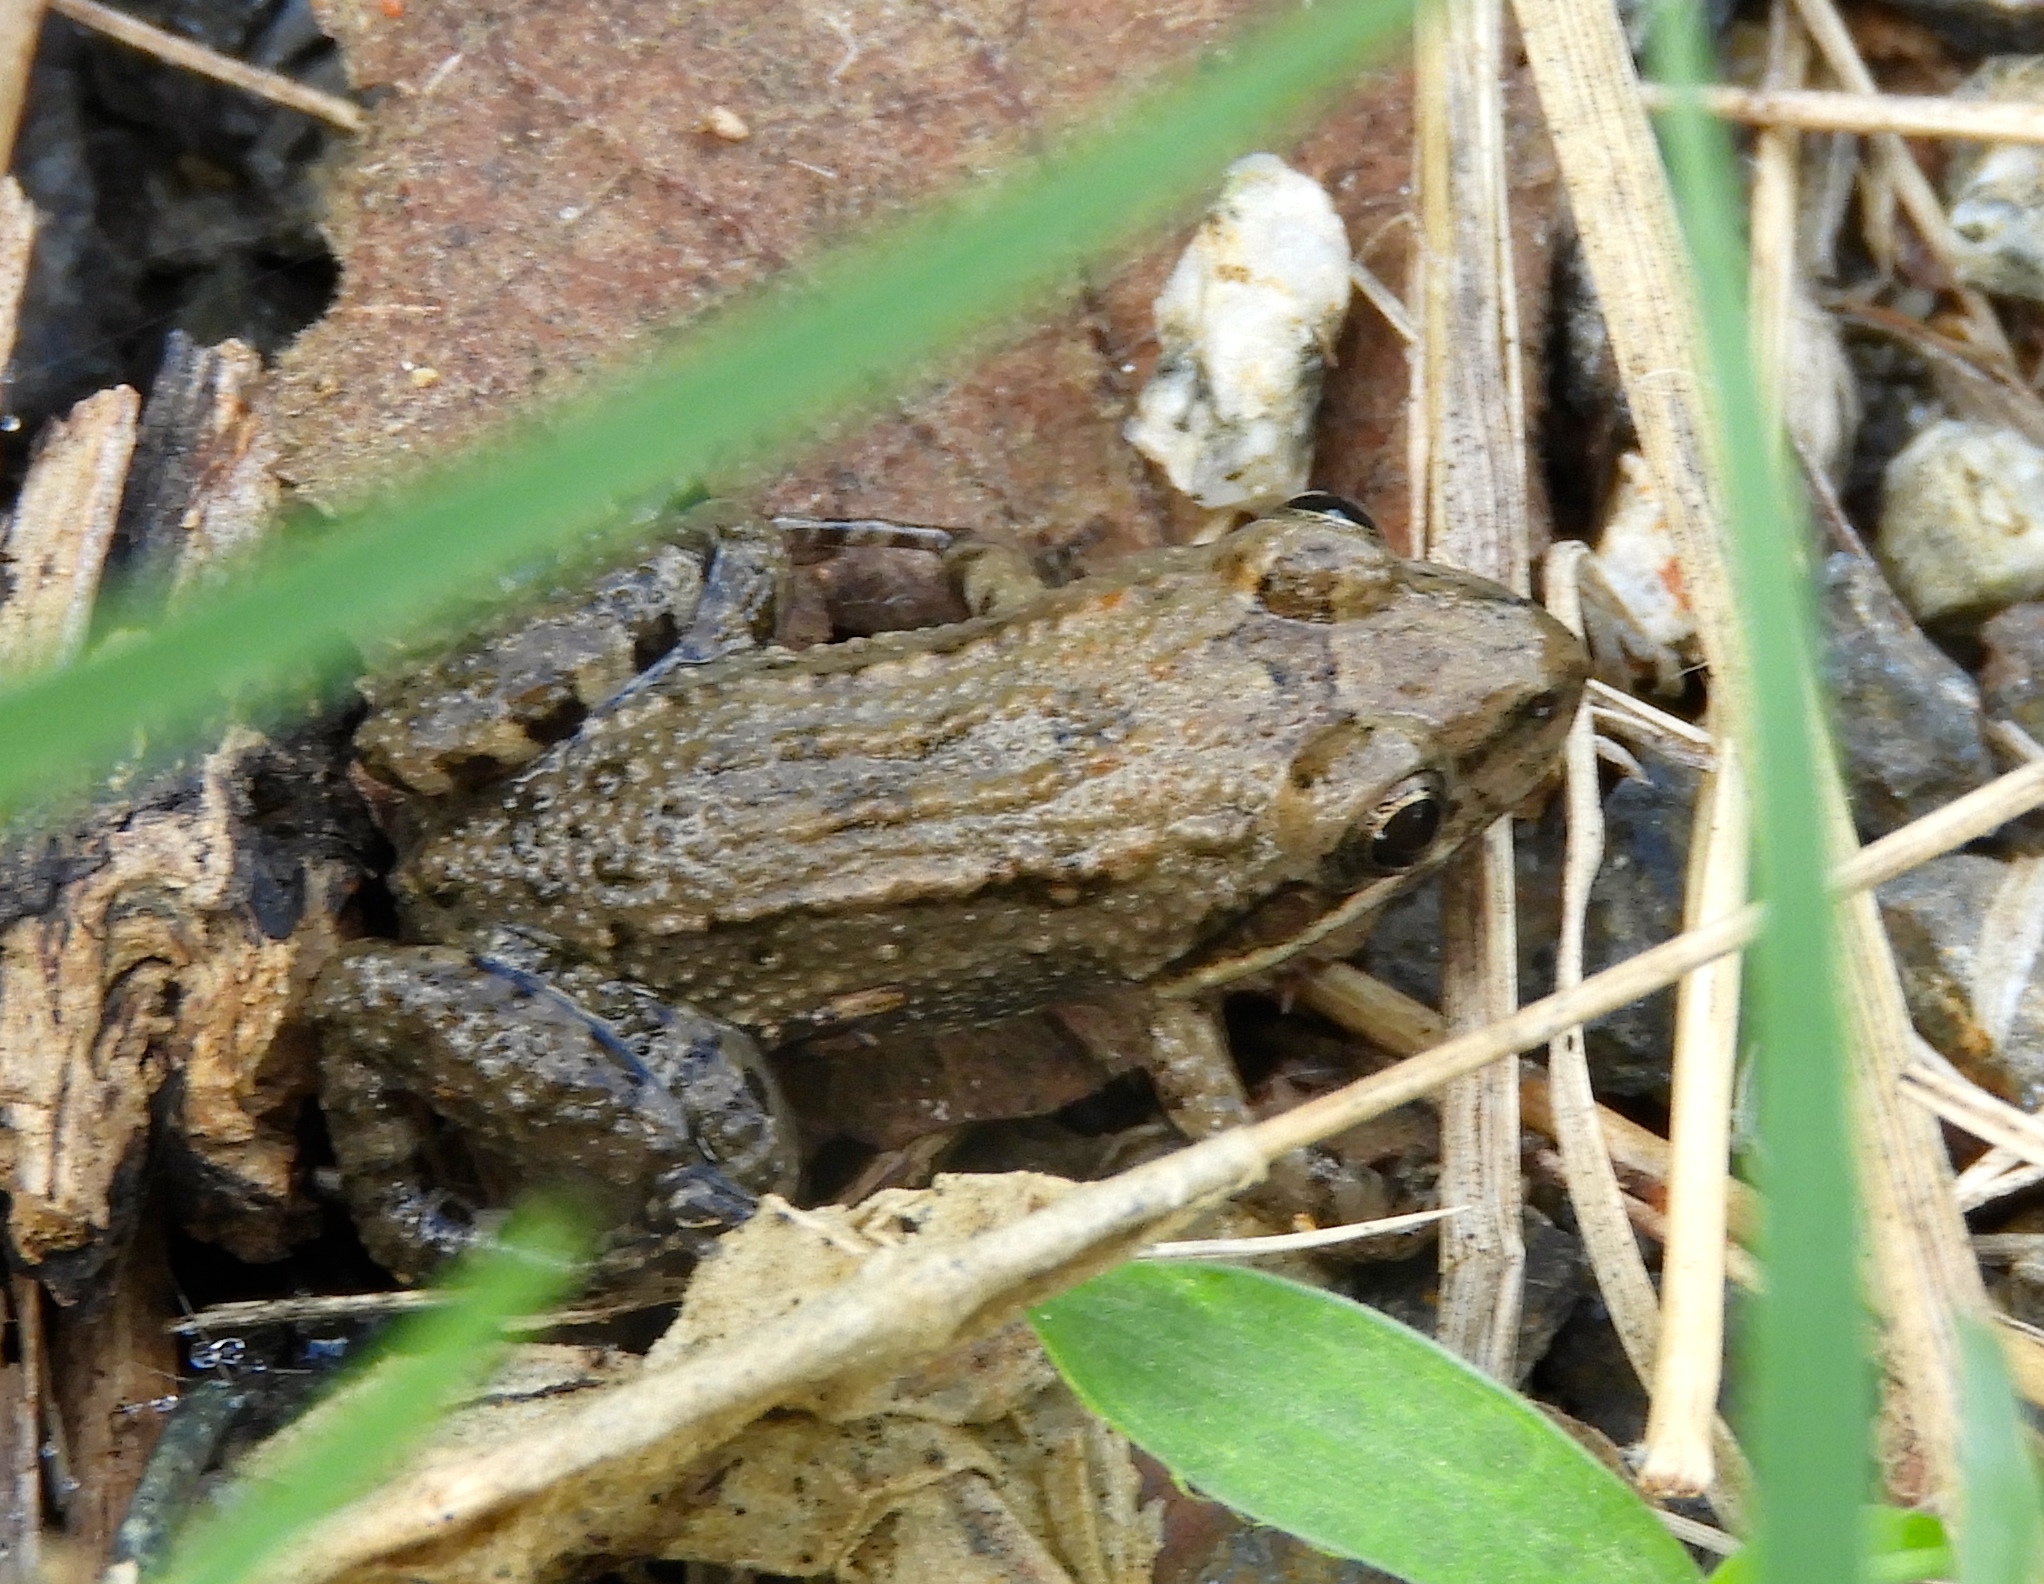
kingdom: Animalia
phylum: Chordata
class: Amphibia
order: Anura
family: Leptodactylidae
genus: Leptodactylus
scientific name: Leptodactylus melanonotus
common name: Fringe-toed foamfrog
